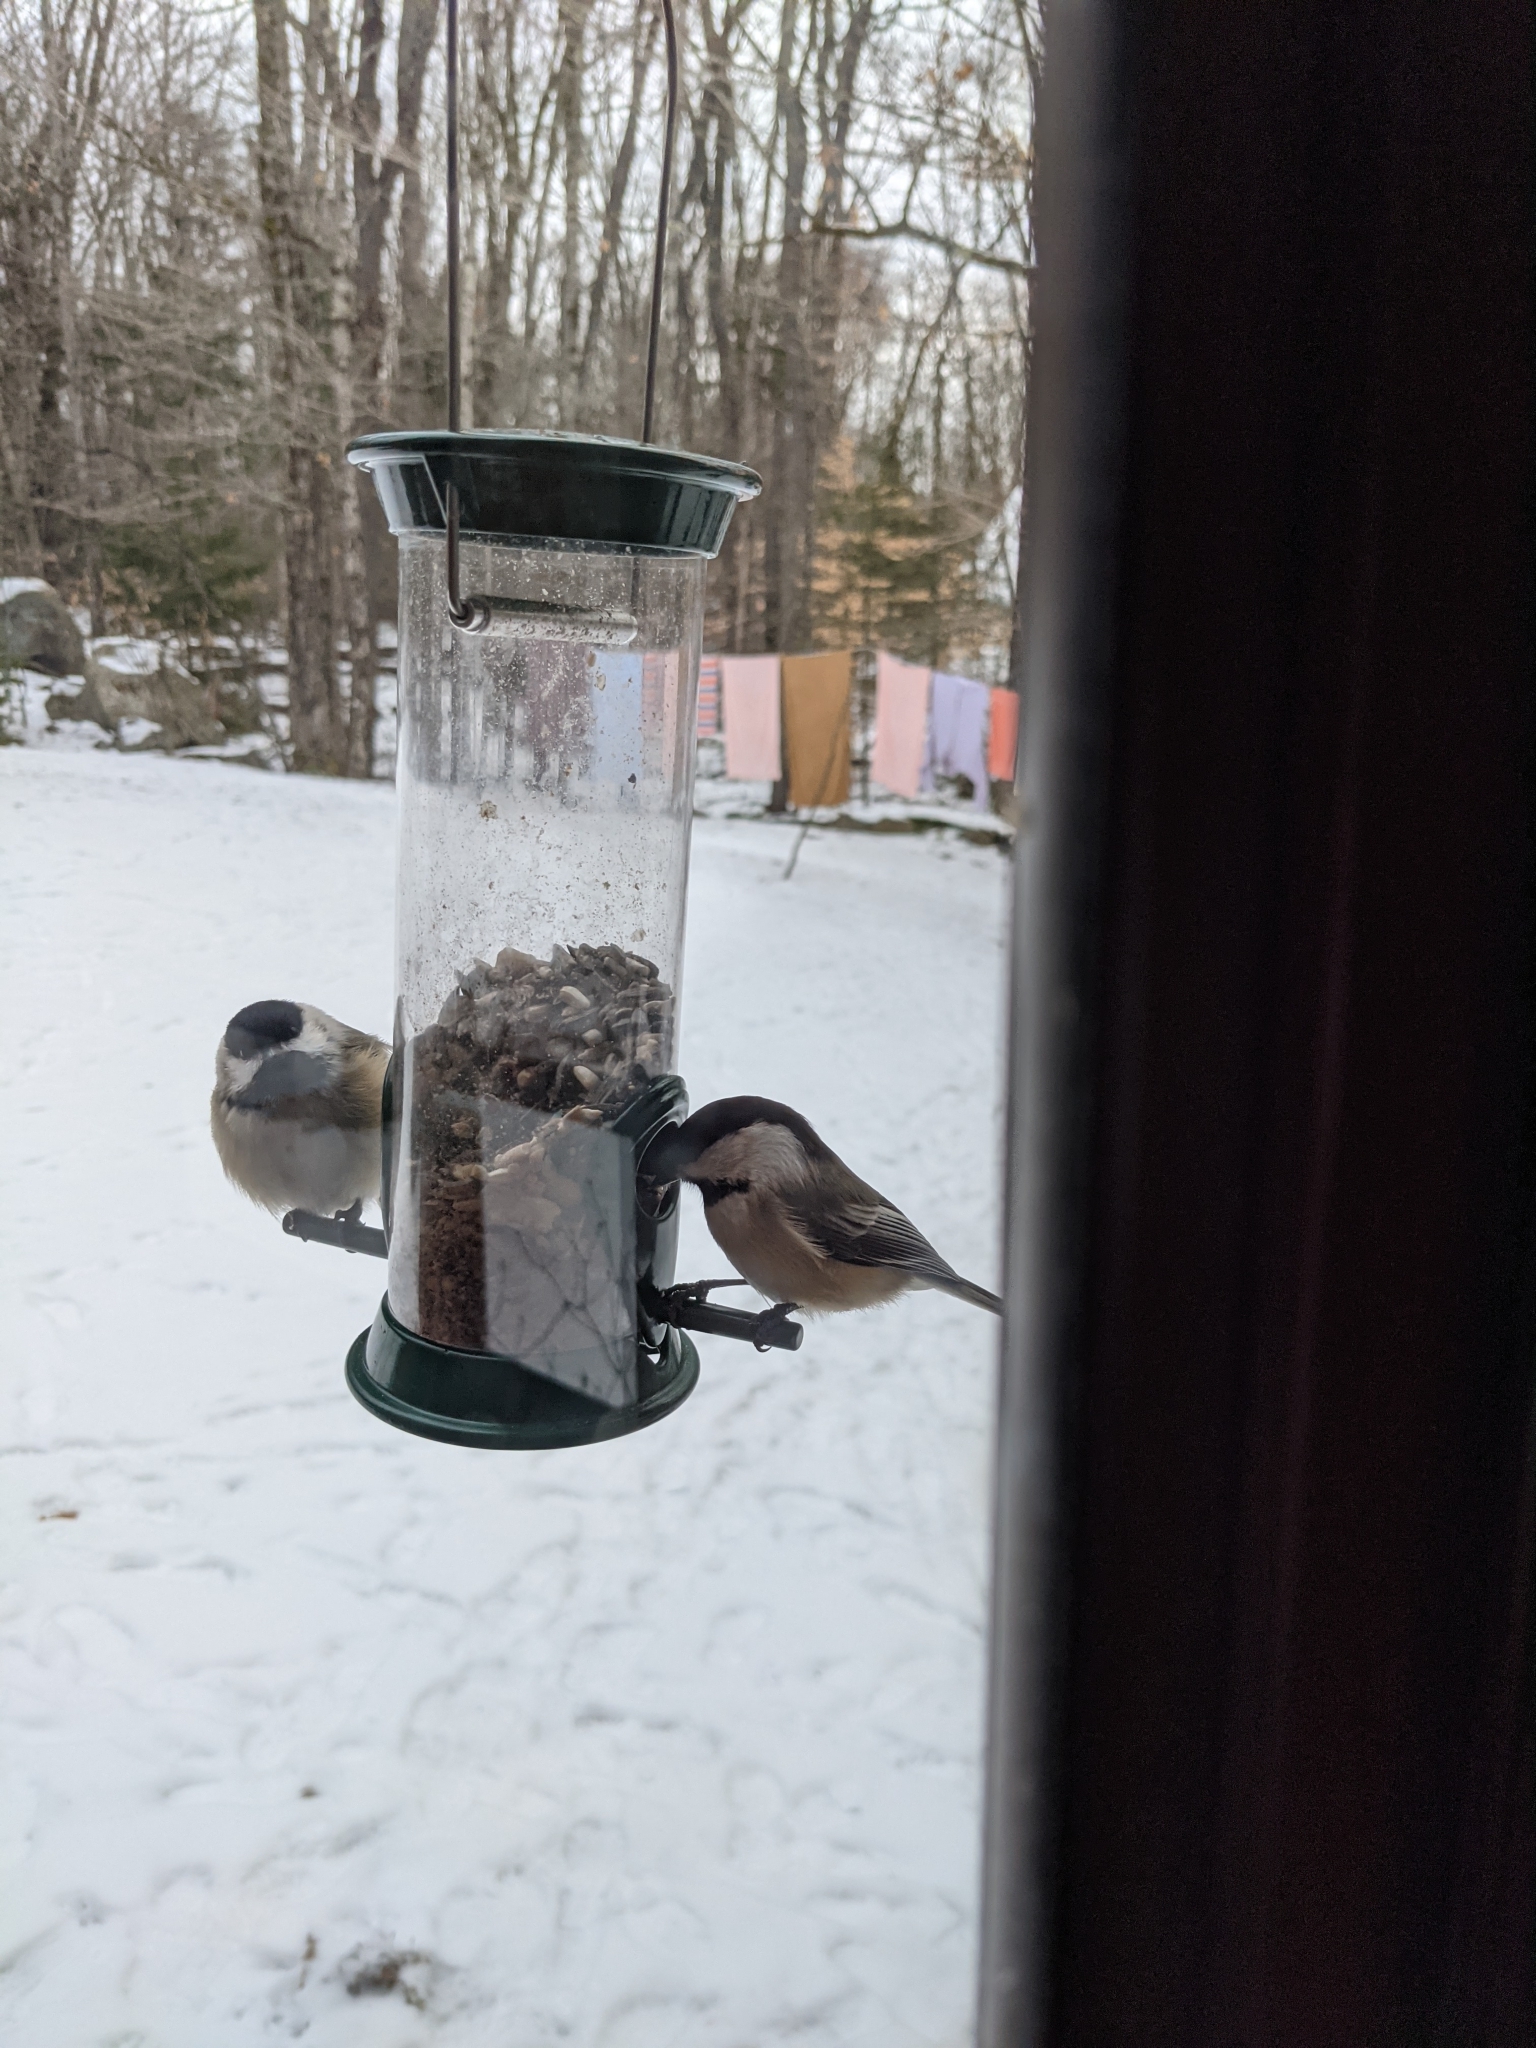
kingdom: Animalia
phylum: Chordata
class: Aves
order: Passeriformes
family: Paridae
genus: Poecile
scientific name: Poecile atricapillus
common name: Black-capped chickadee
